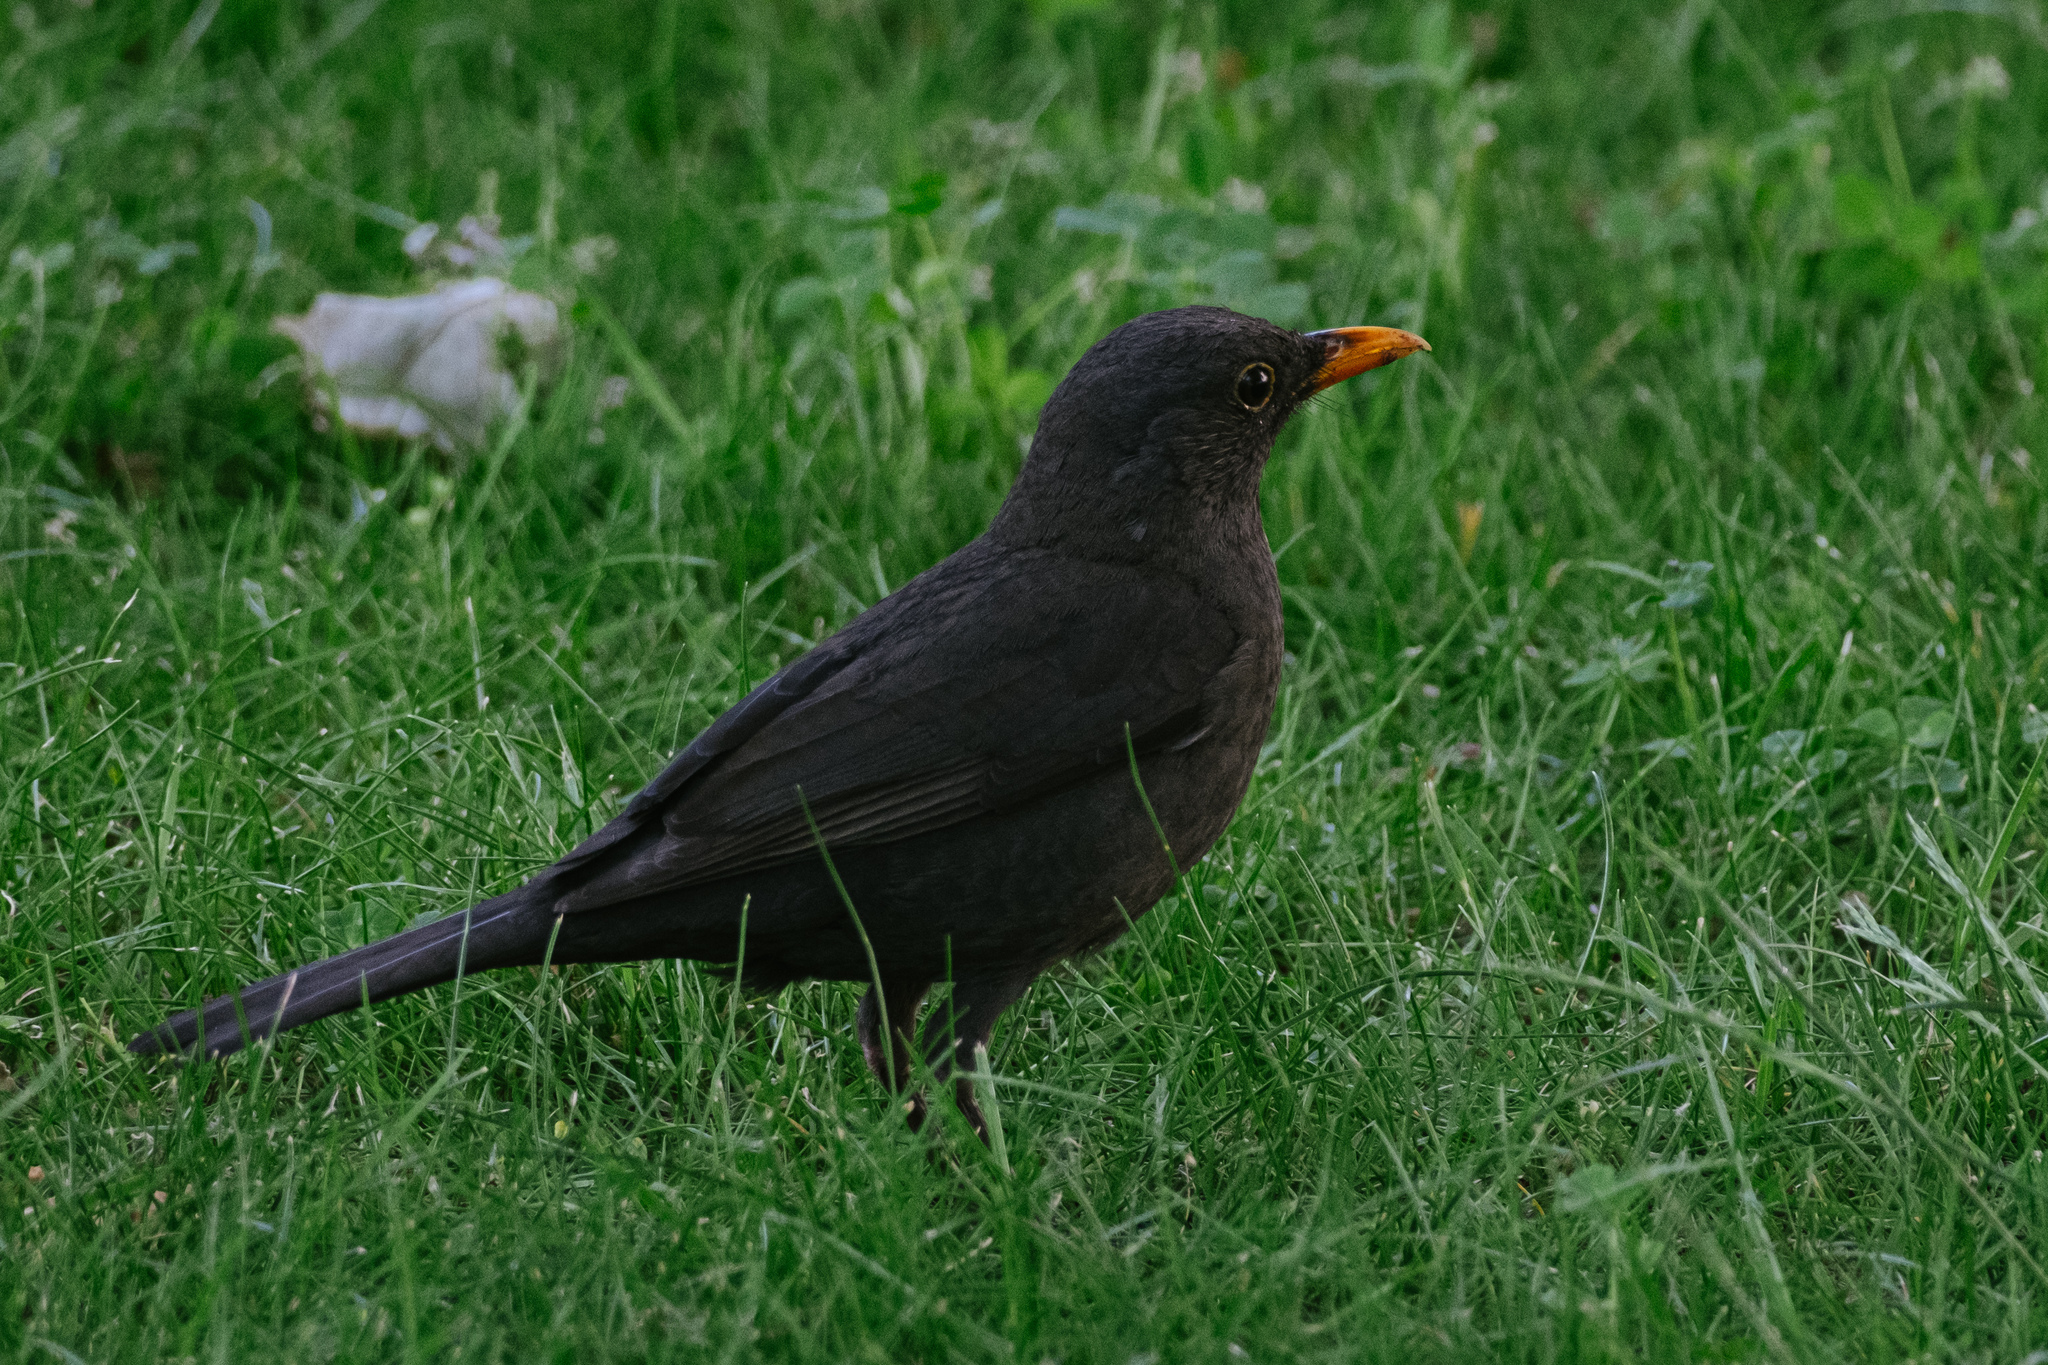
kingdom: Animalia
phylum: Chordata
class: Aves
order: Passeriformes
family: Turdidae
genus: Turdus
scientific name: Turdus merula
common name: Common blackbird
